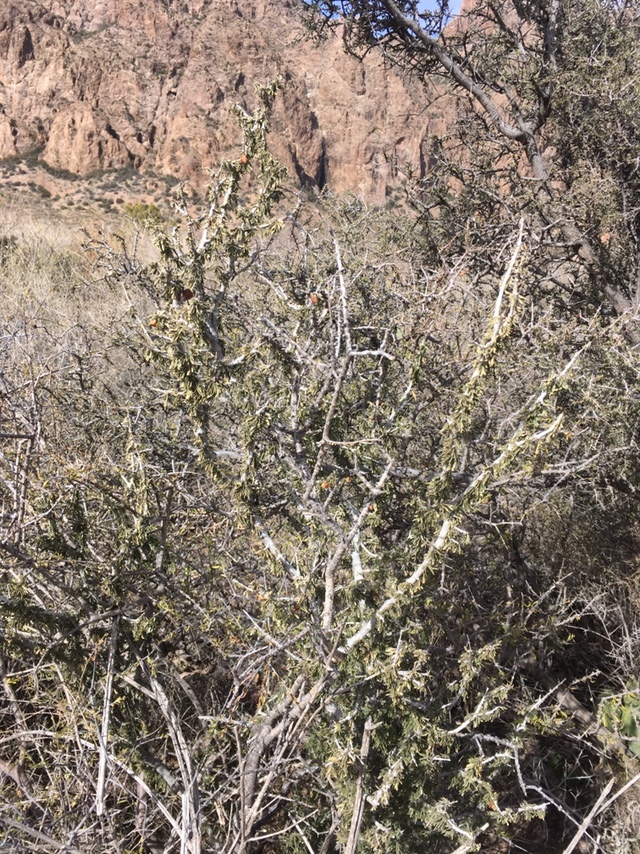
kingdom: Plantae
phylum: Tracheophyta
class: Magnoliopsida
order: Zygophyllales
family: Zygophyllaceae
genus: Porlieria
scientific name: Porlieria angustifolia
